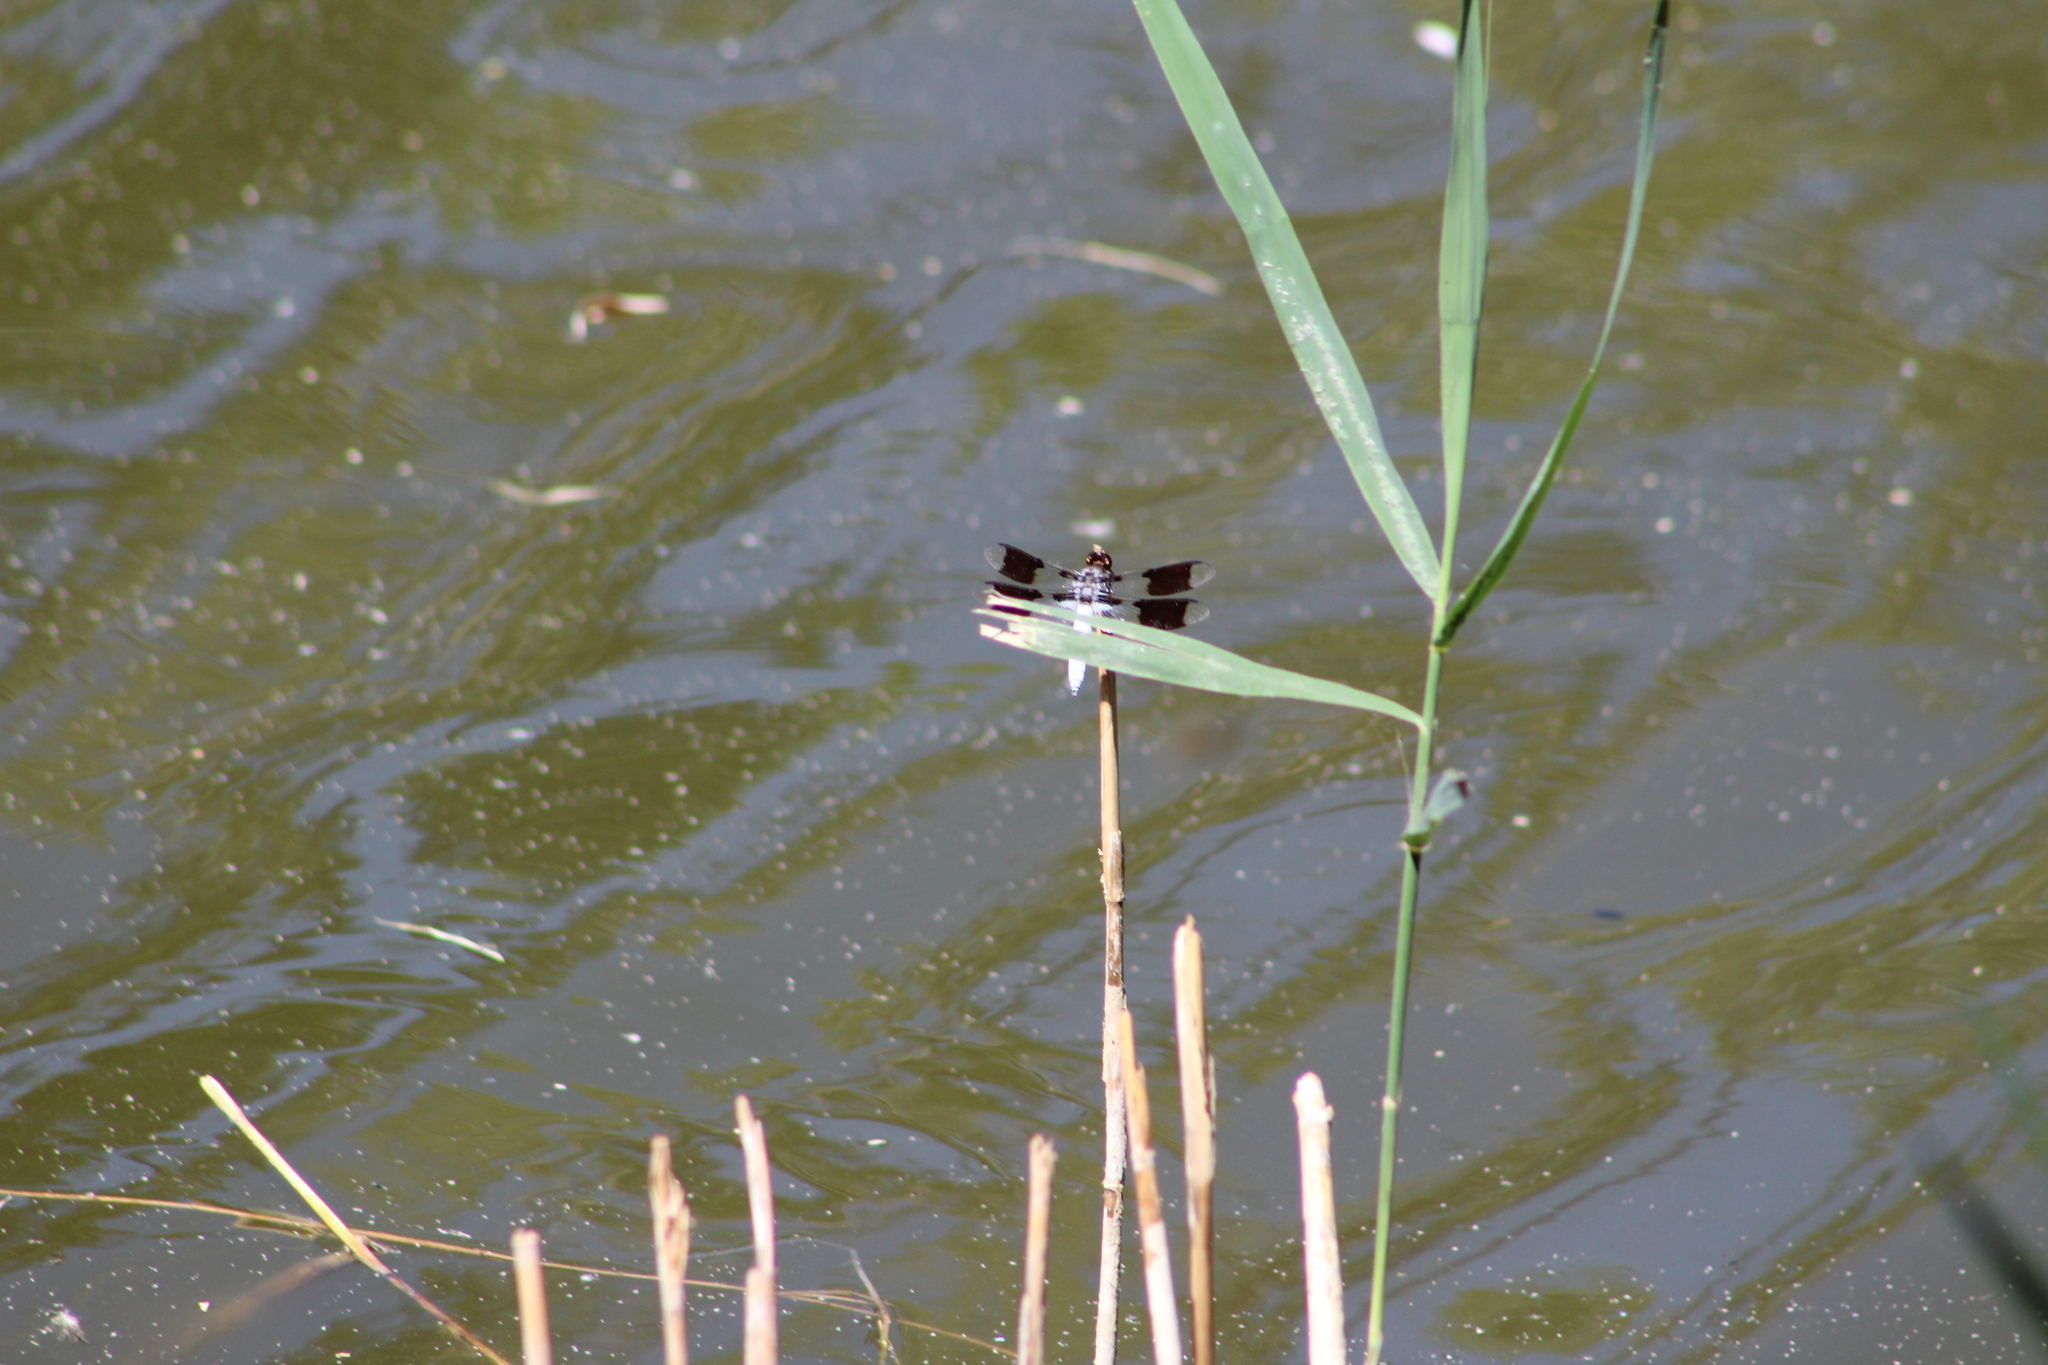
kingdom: Animalia
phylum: Arthropoda
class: Insecta
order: Odonata
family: Libellulidae
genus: Plathemis
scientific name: Plathemis lydia
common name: Common whitetail
